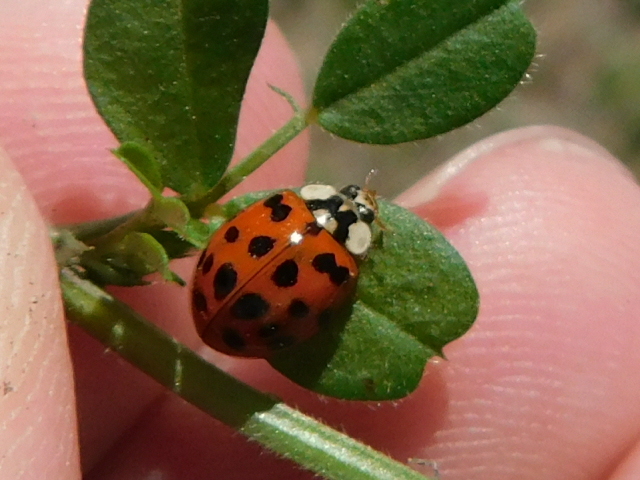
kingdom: Animalia
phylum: Arthropoda
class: Insecta
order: Coleoptera
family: Coccinellidae
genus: Harmonia
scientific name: Harmonia axyridis
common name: Harlequin ladybird
